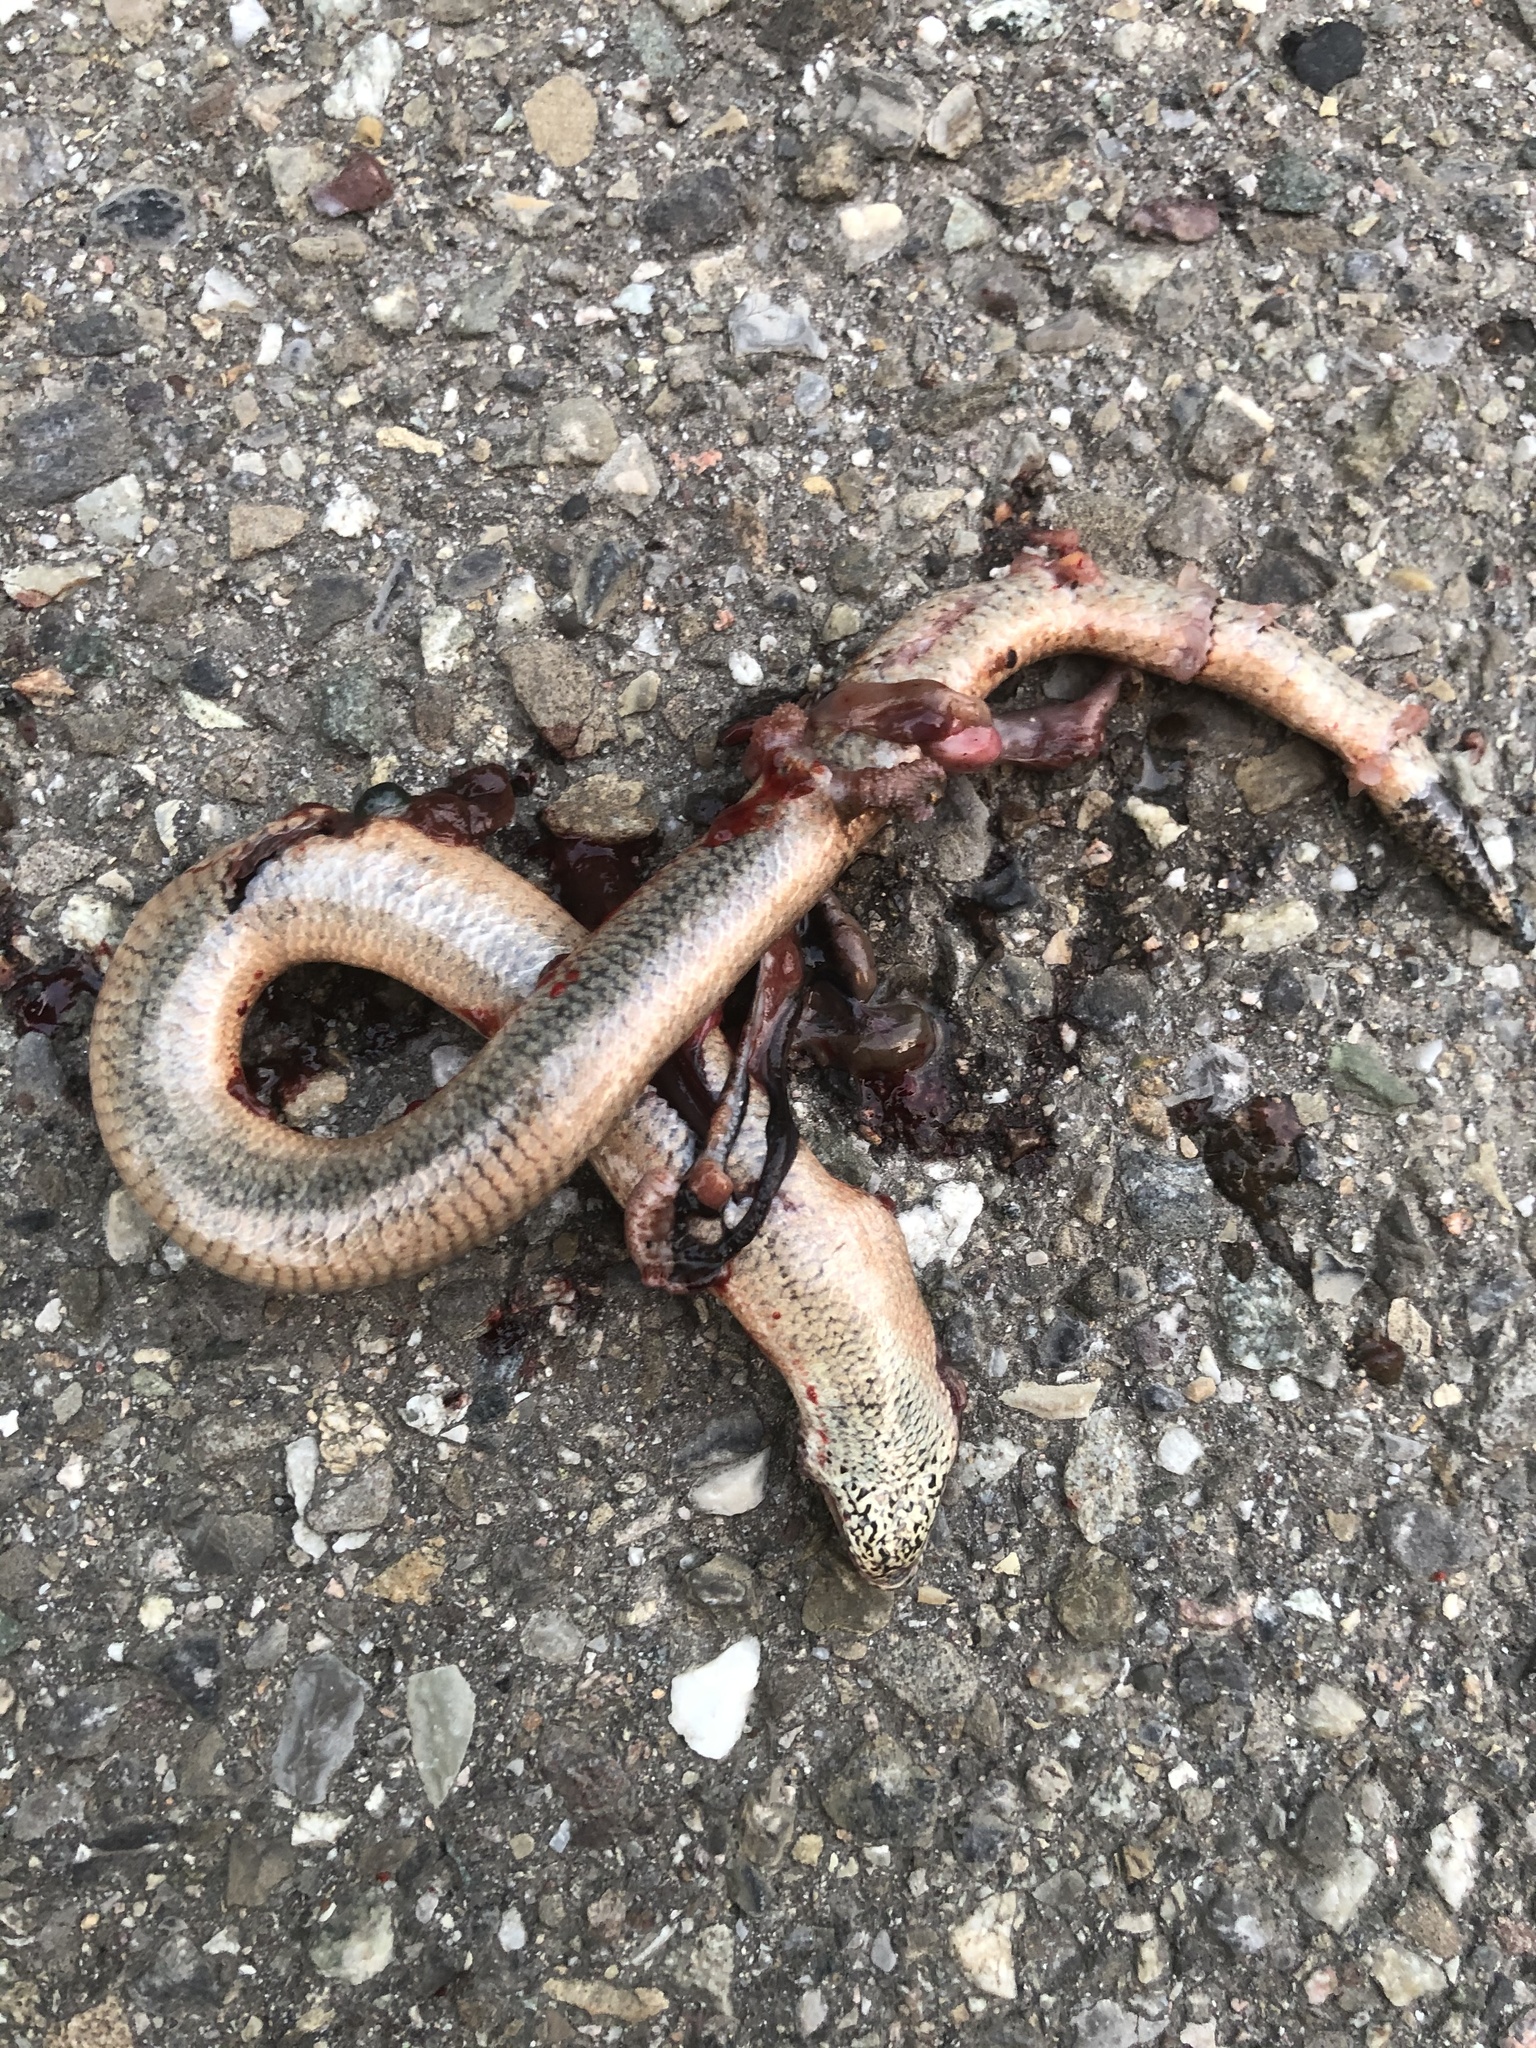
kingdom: Animalia
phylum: Chordata
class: Squamata
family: Anguidae
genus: Anguis
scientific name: Anguis fragilis
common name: Slow worm
